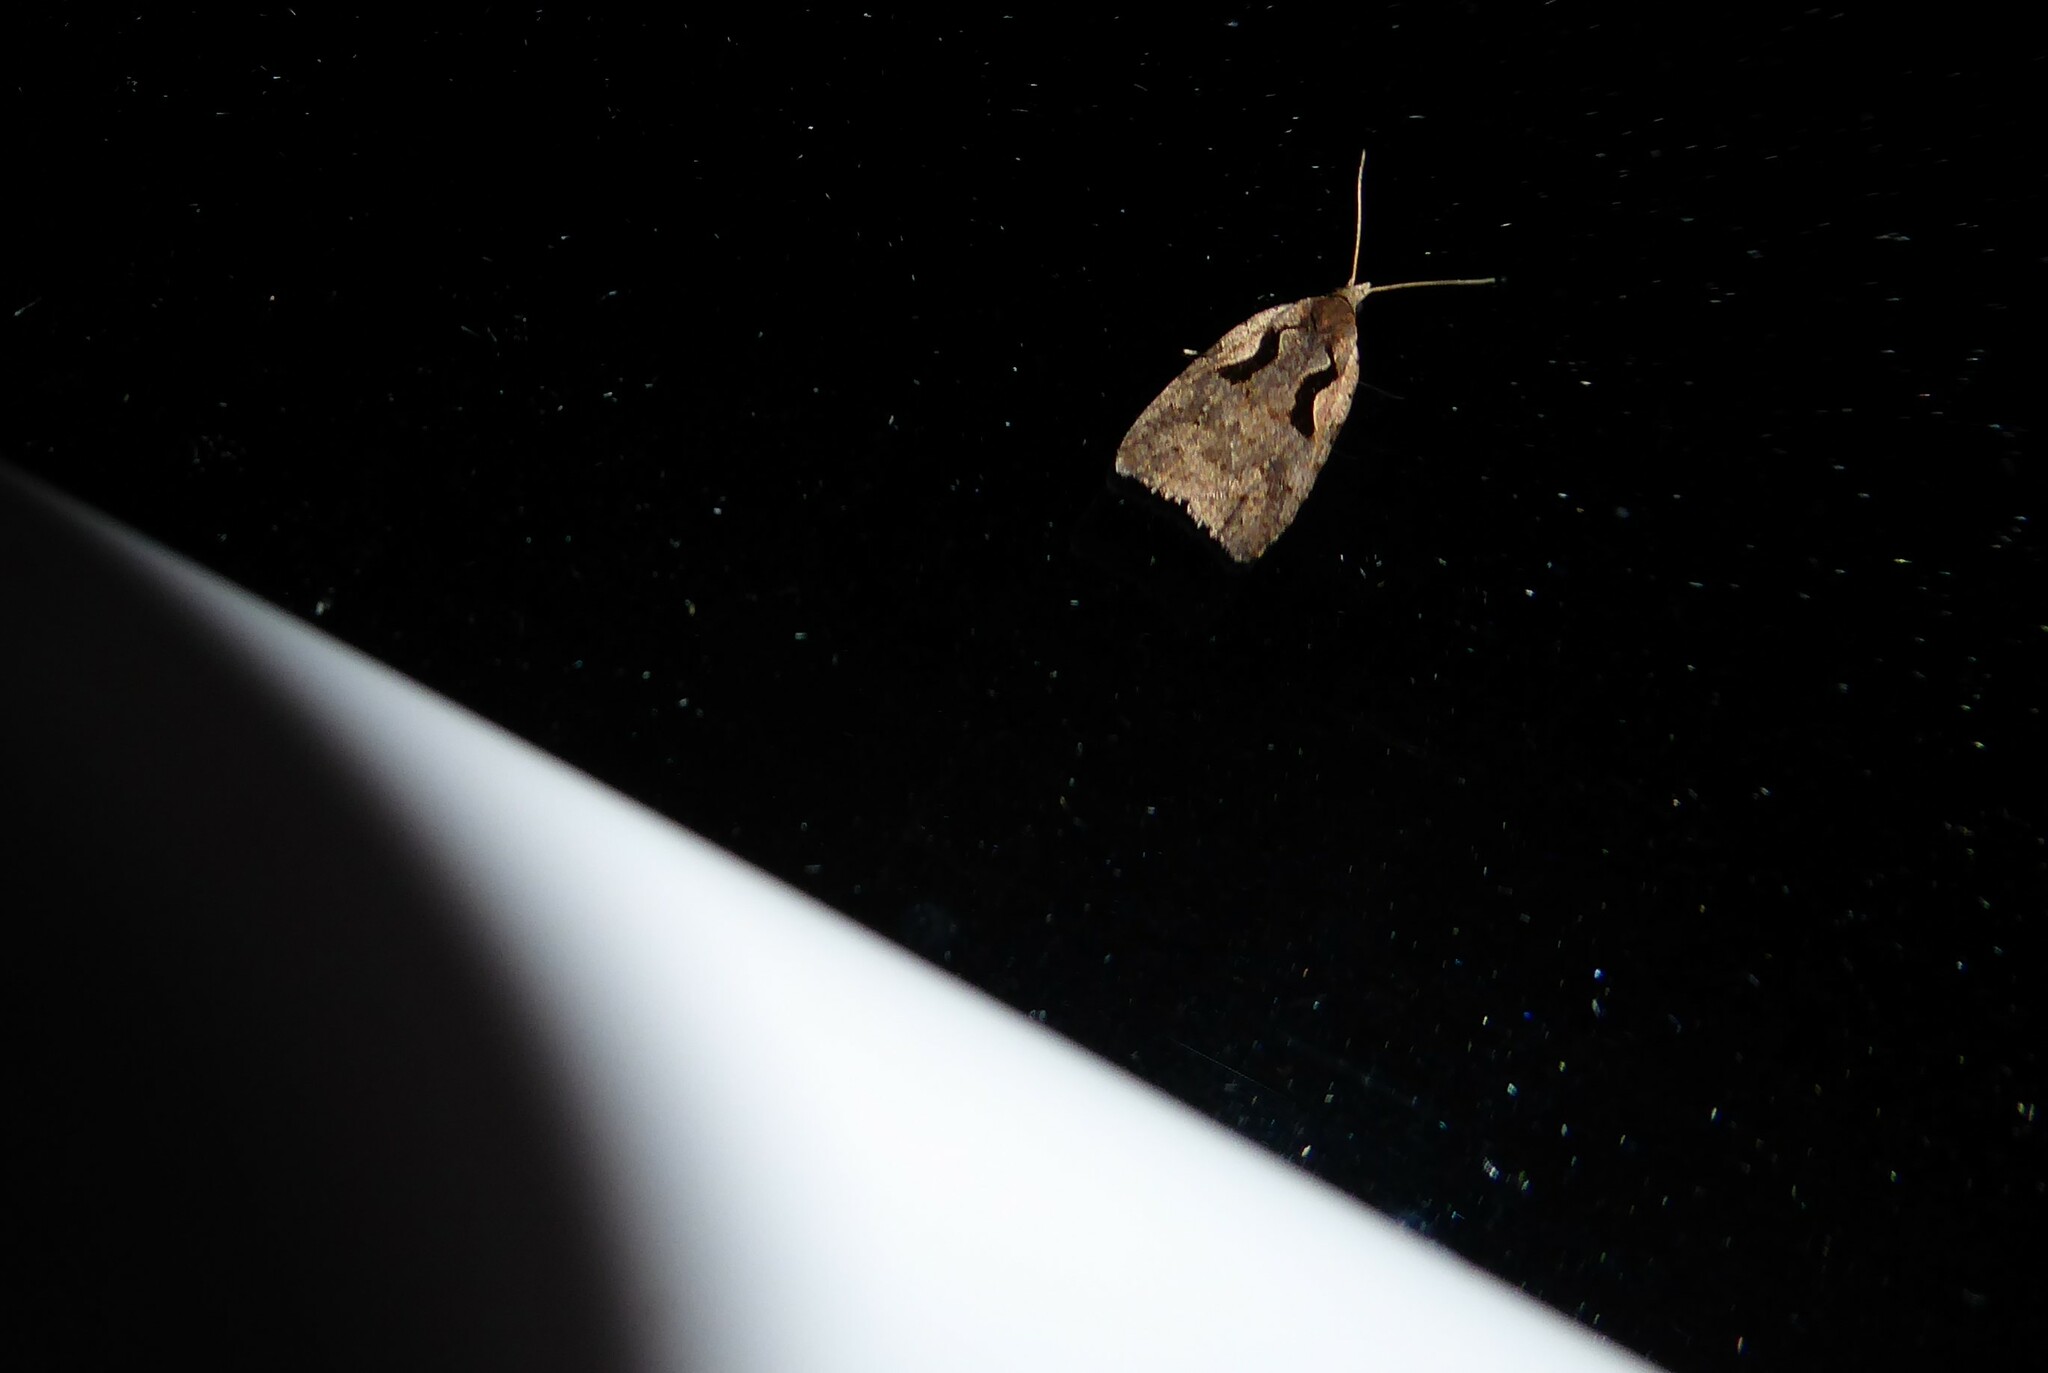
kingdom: Animalia
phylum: Arthropoda
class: Insecta
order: Lepidoptera
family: Tortricidae
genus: Cnephasia
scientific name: Cnephasia jactatana
